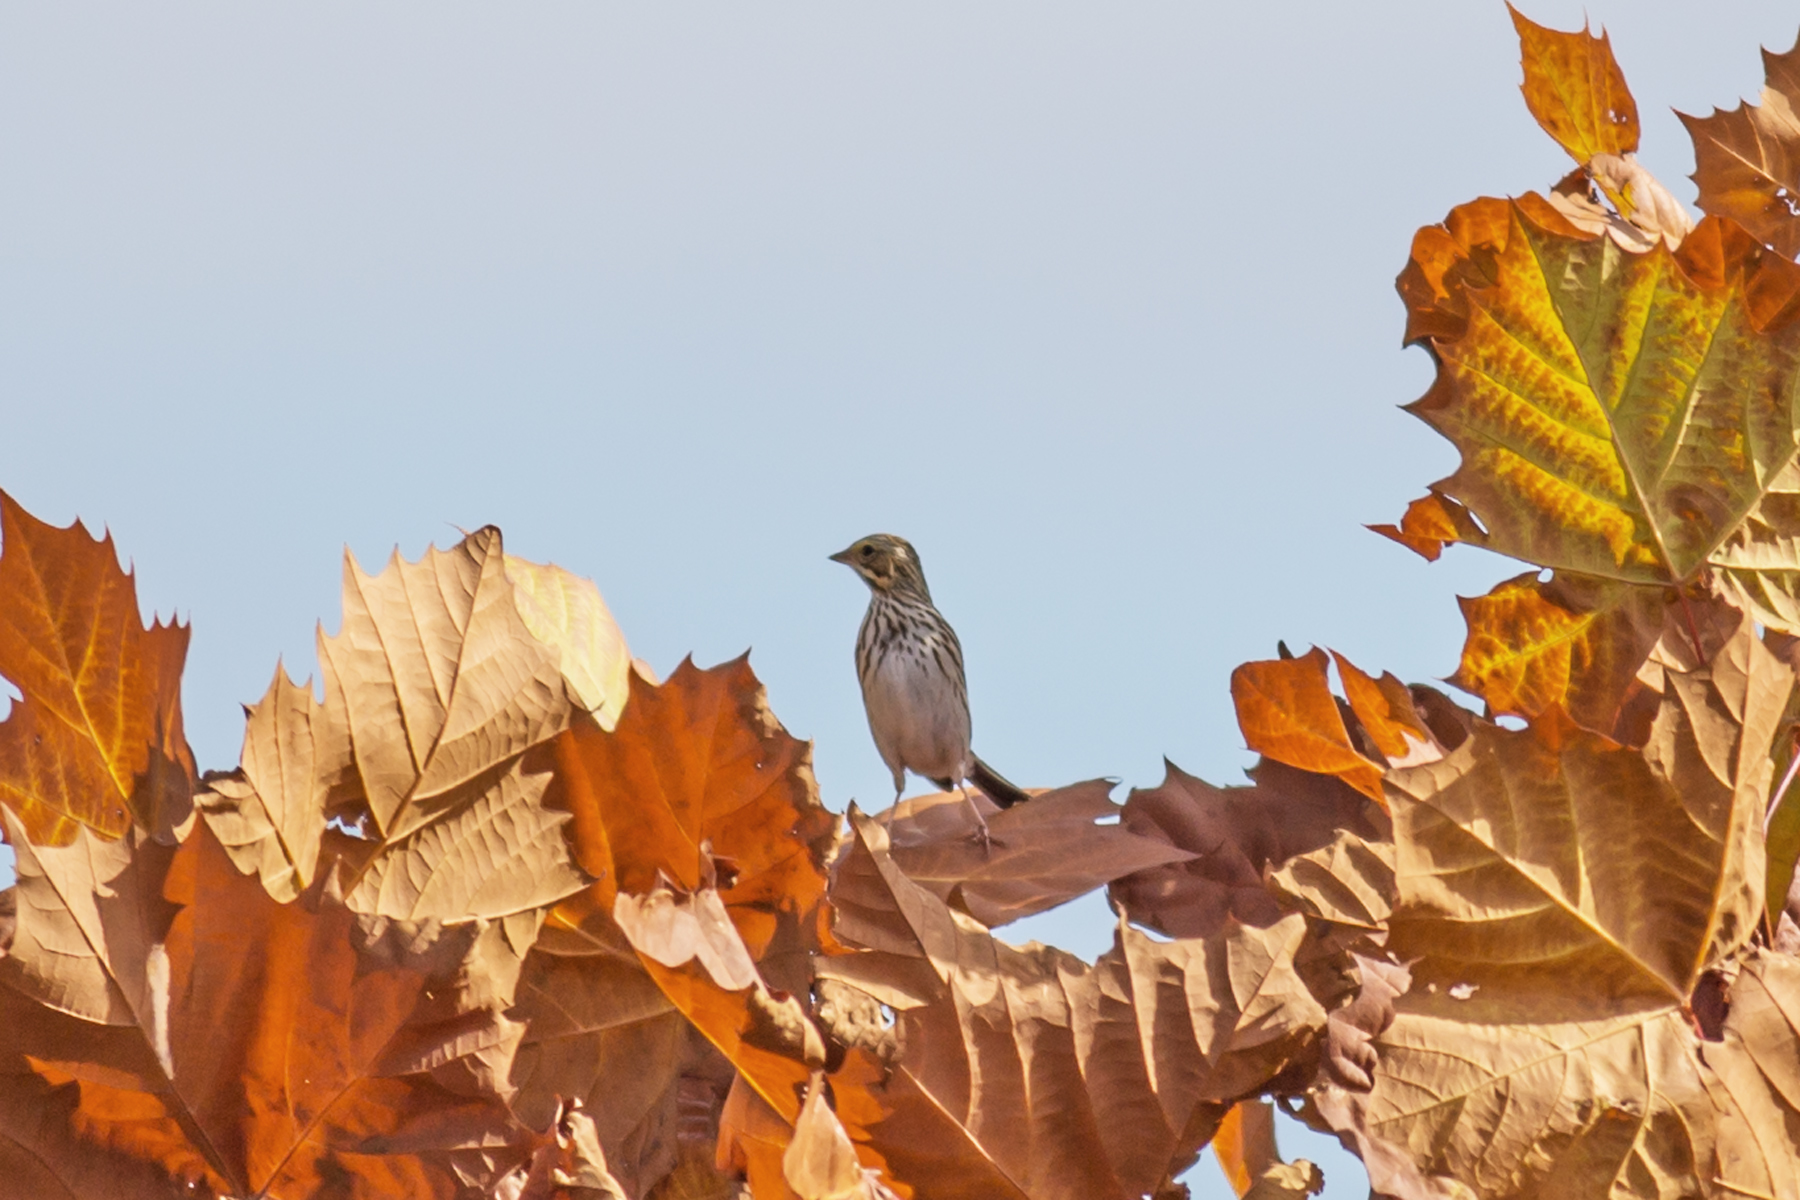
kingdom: Animalia
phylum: Chordata
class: Aves
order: Passeriformes
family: Passerellidae
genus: Passerculus
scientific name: Passerculus sandwichensis
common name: Savannah sparrow
